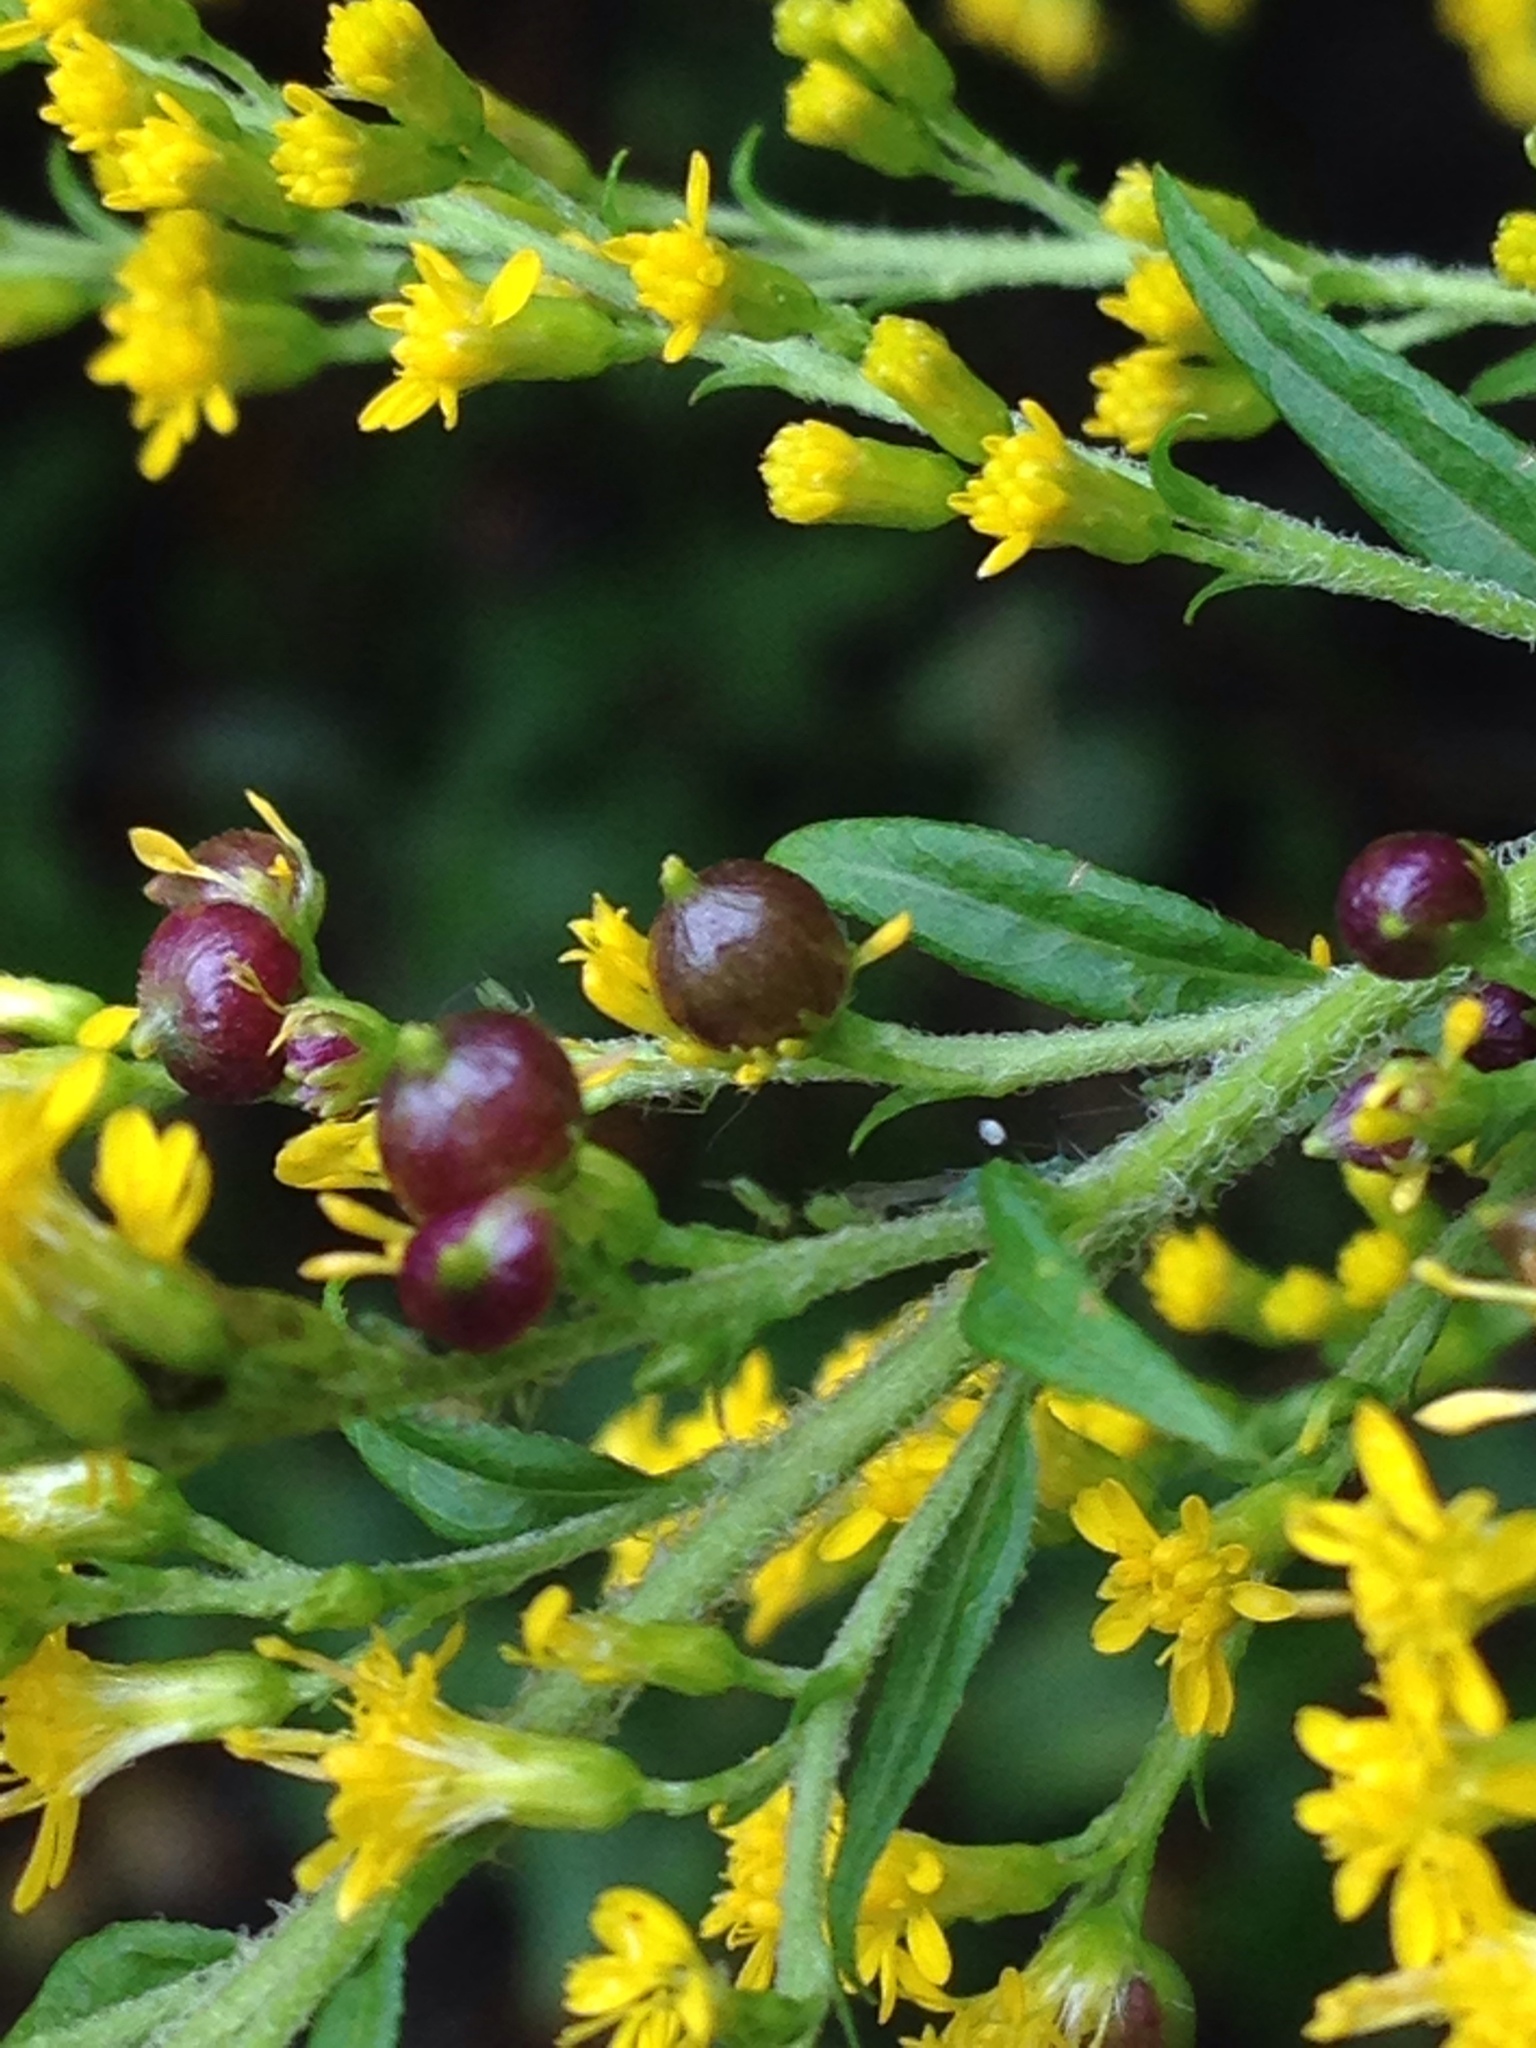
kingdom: Animalia
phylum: Arthropoda
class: Insecta
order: Diptera
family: Cecidomyiidae
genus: Schizomyia
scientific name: Schizomyia racemicola
